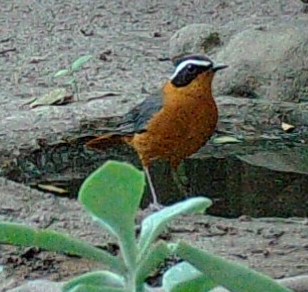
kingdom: Animalia
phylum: Chordata
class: Aves
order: Passeriformes
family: Muscicapidae
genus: Cossypha
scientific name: Cossypha heuglini
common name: White-browed robin-chat
